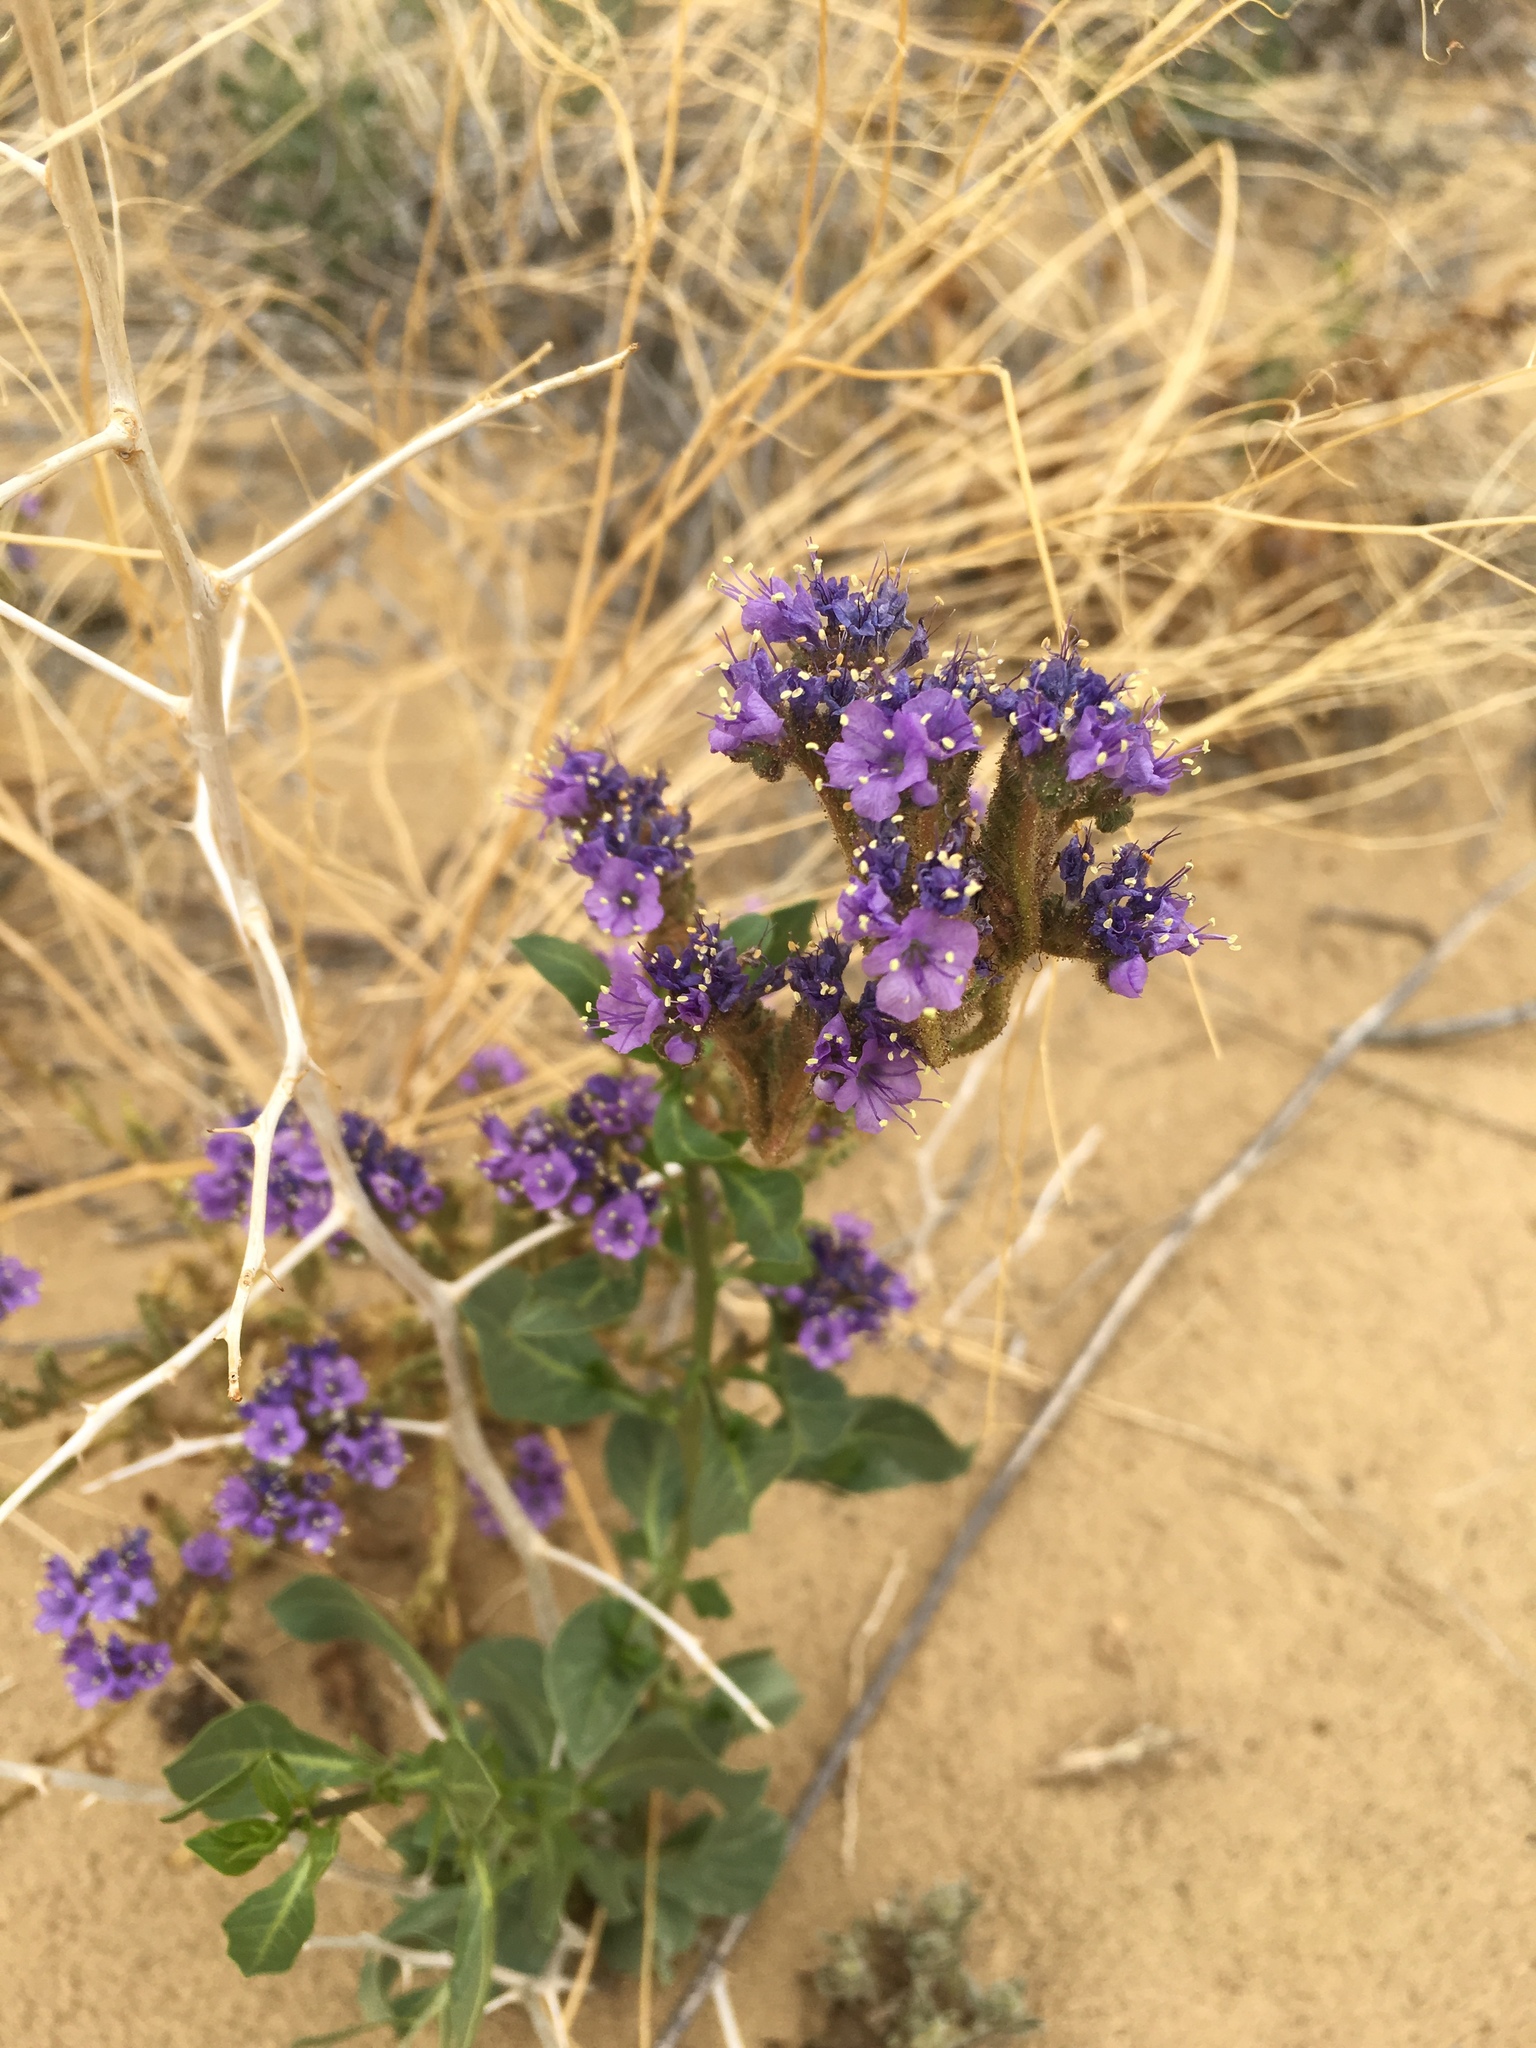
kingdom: Plantae
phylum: Tracheophyta
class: Magnoliopsida
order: Boraginales
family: Hydrophyllaceae
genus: Phacelia
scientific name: Phacelia crenulata
